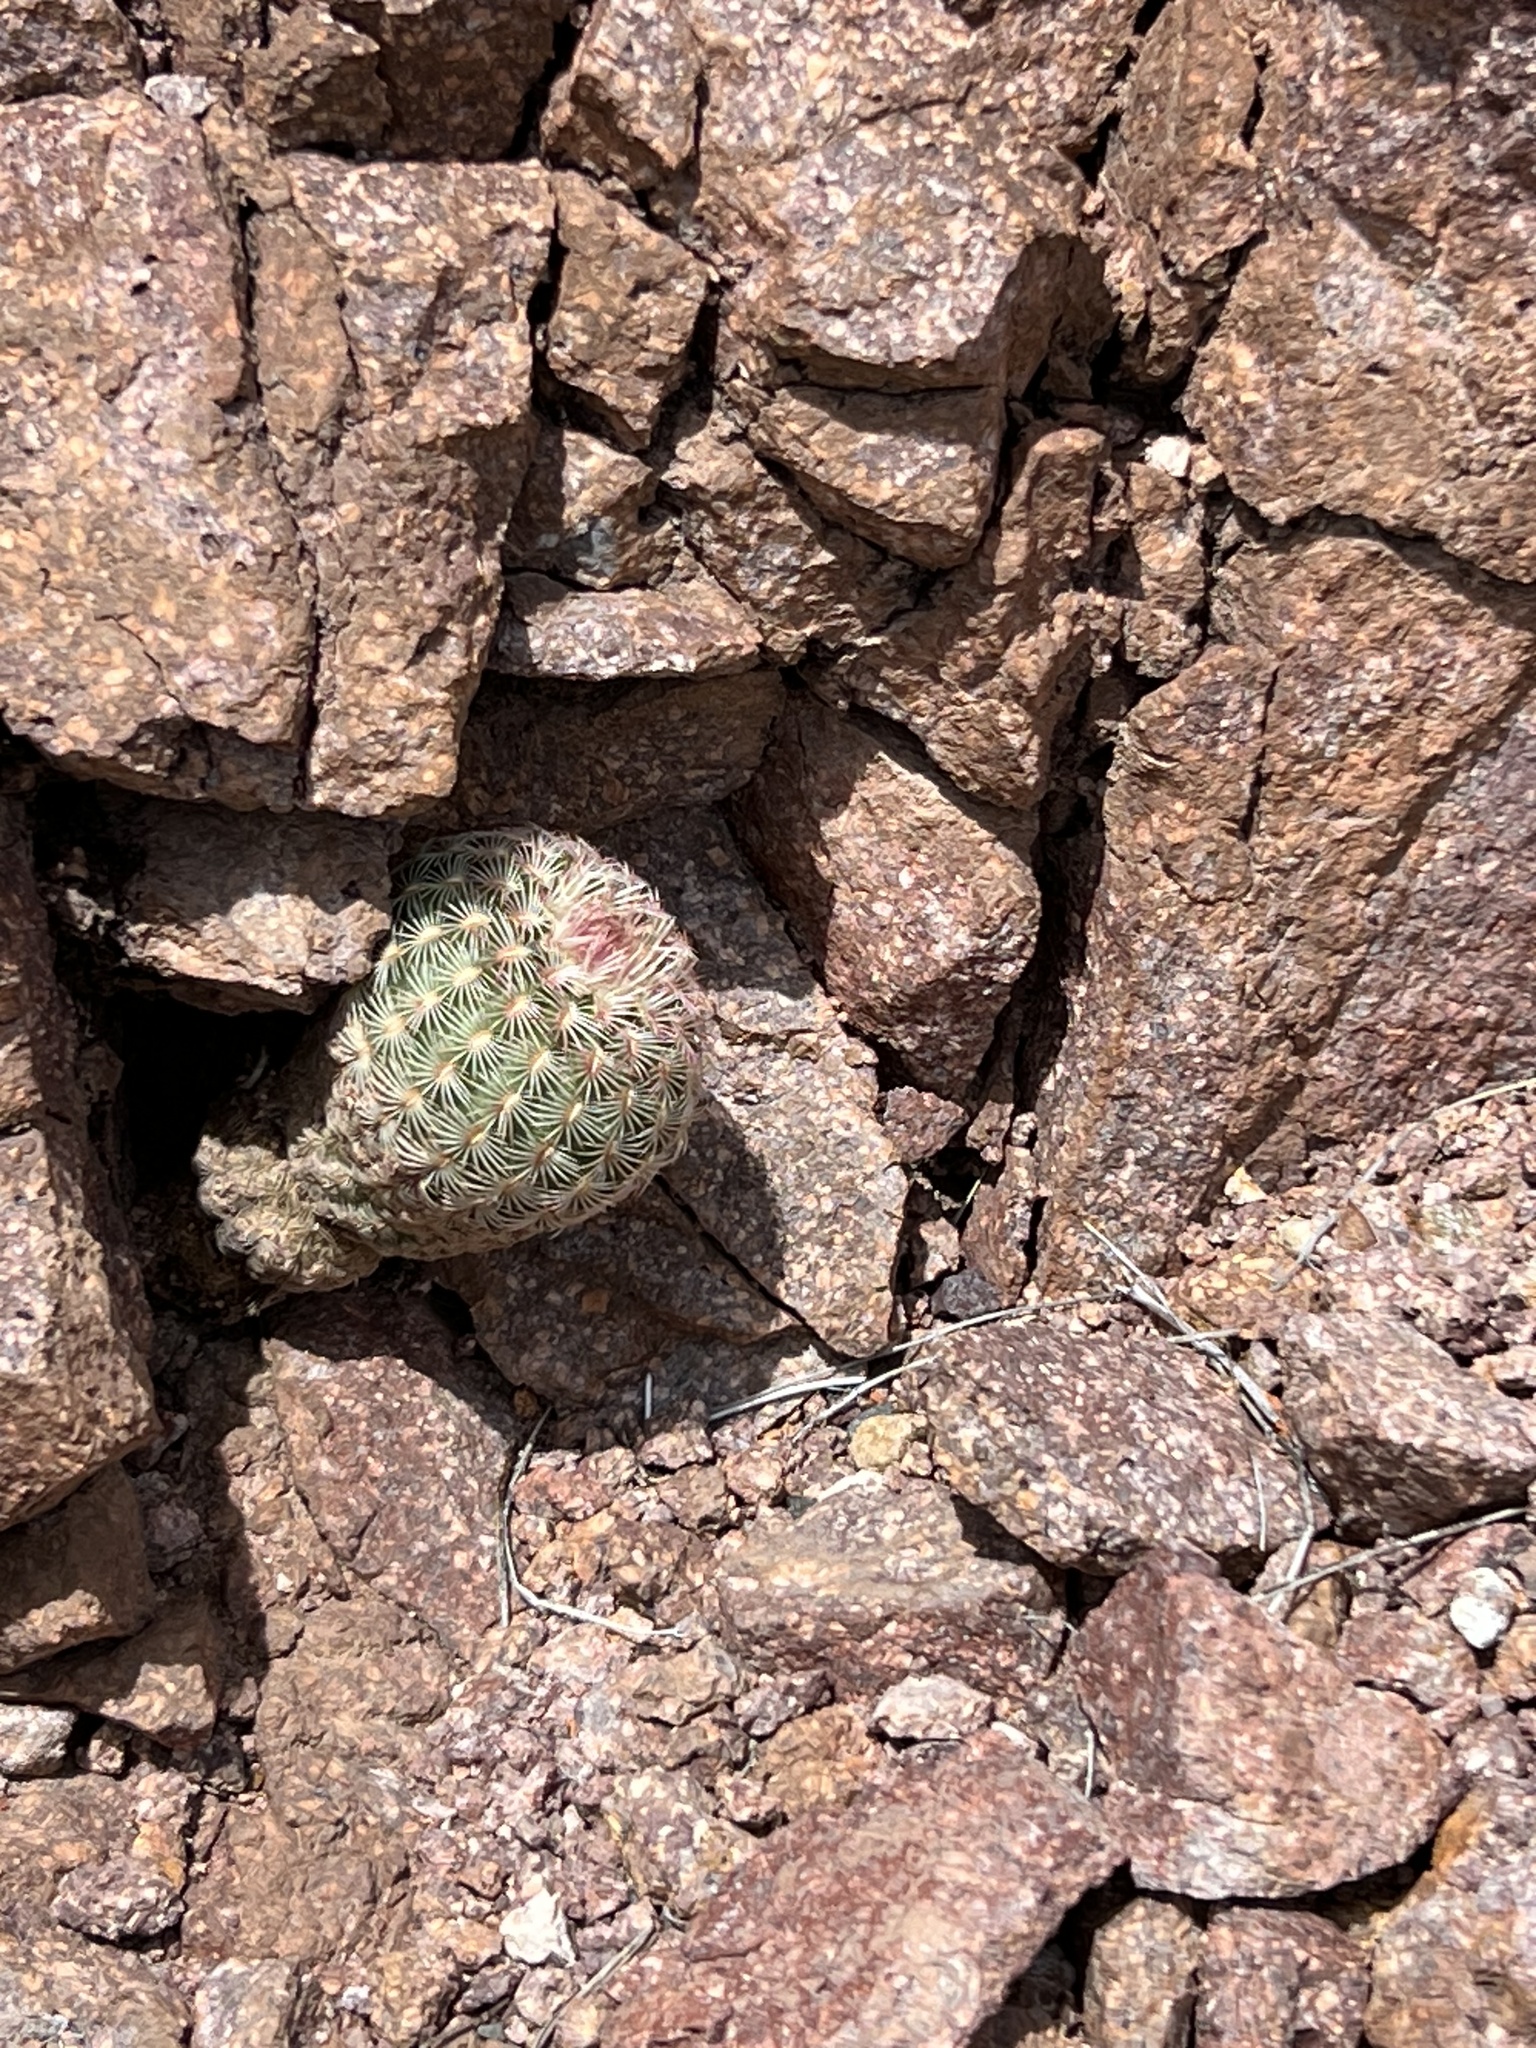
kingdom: Plantae
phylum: Tracheophyta
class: Magnoliopsida
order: Caryophyllales
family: Cactaceae
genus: Echinocereus
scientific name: Echinocereus rigidissimus
